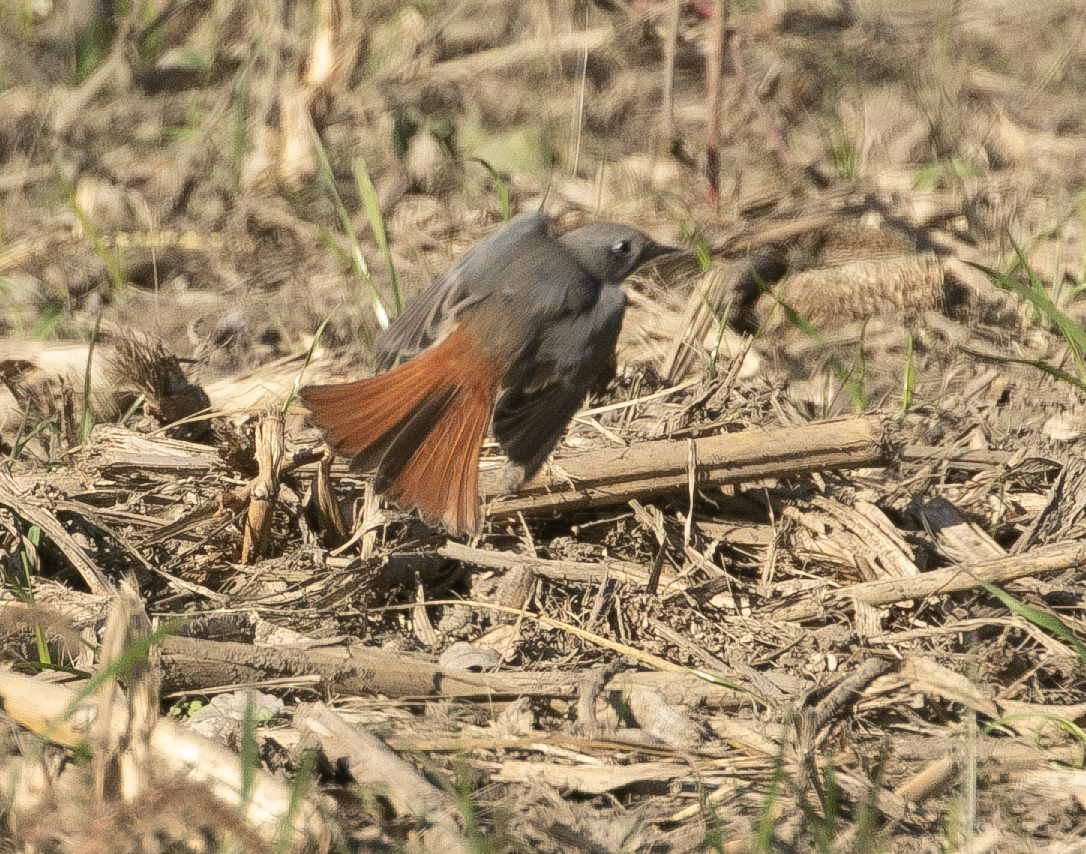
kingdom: Animalia
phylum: Chordata
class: Aves
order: Passeriformes
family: Muscicapidae
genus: Phoenicurus
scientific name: Phoenicurus ochruros
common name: Black redstart
